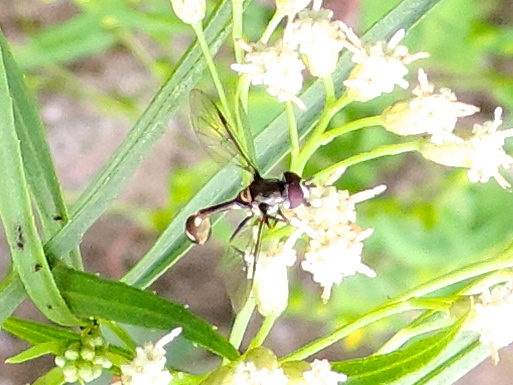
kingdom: Animalia
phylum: Arthropoda
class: Insecta
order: Diptera
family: Syrphidae
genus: Dioprosopa
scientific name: Dioprosopa clavatus
